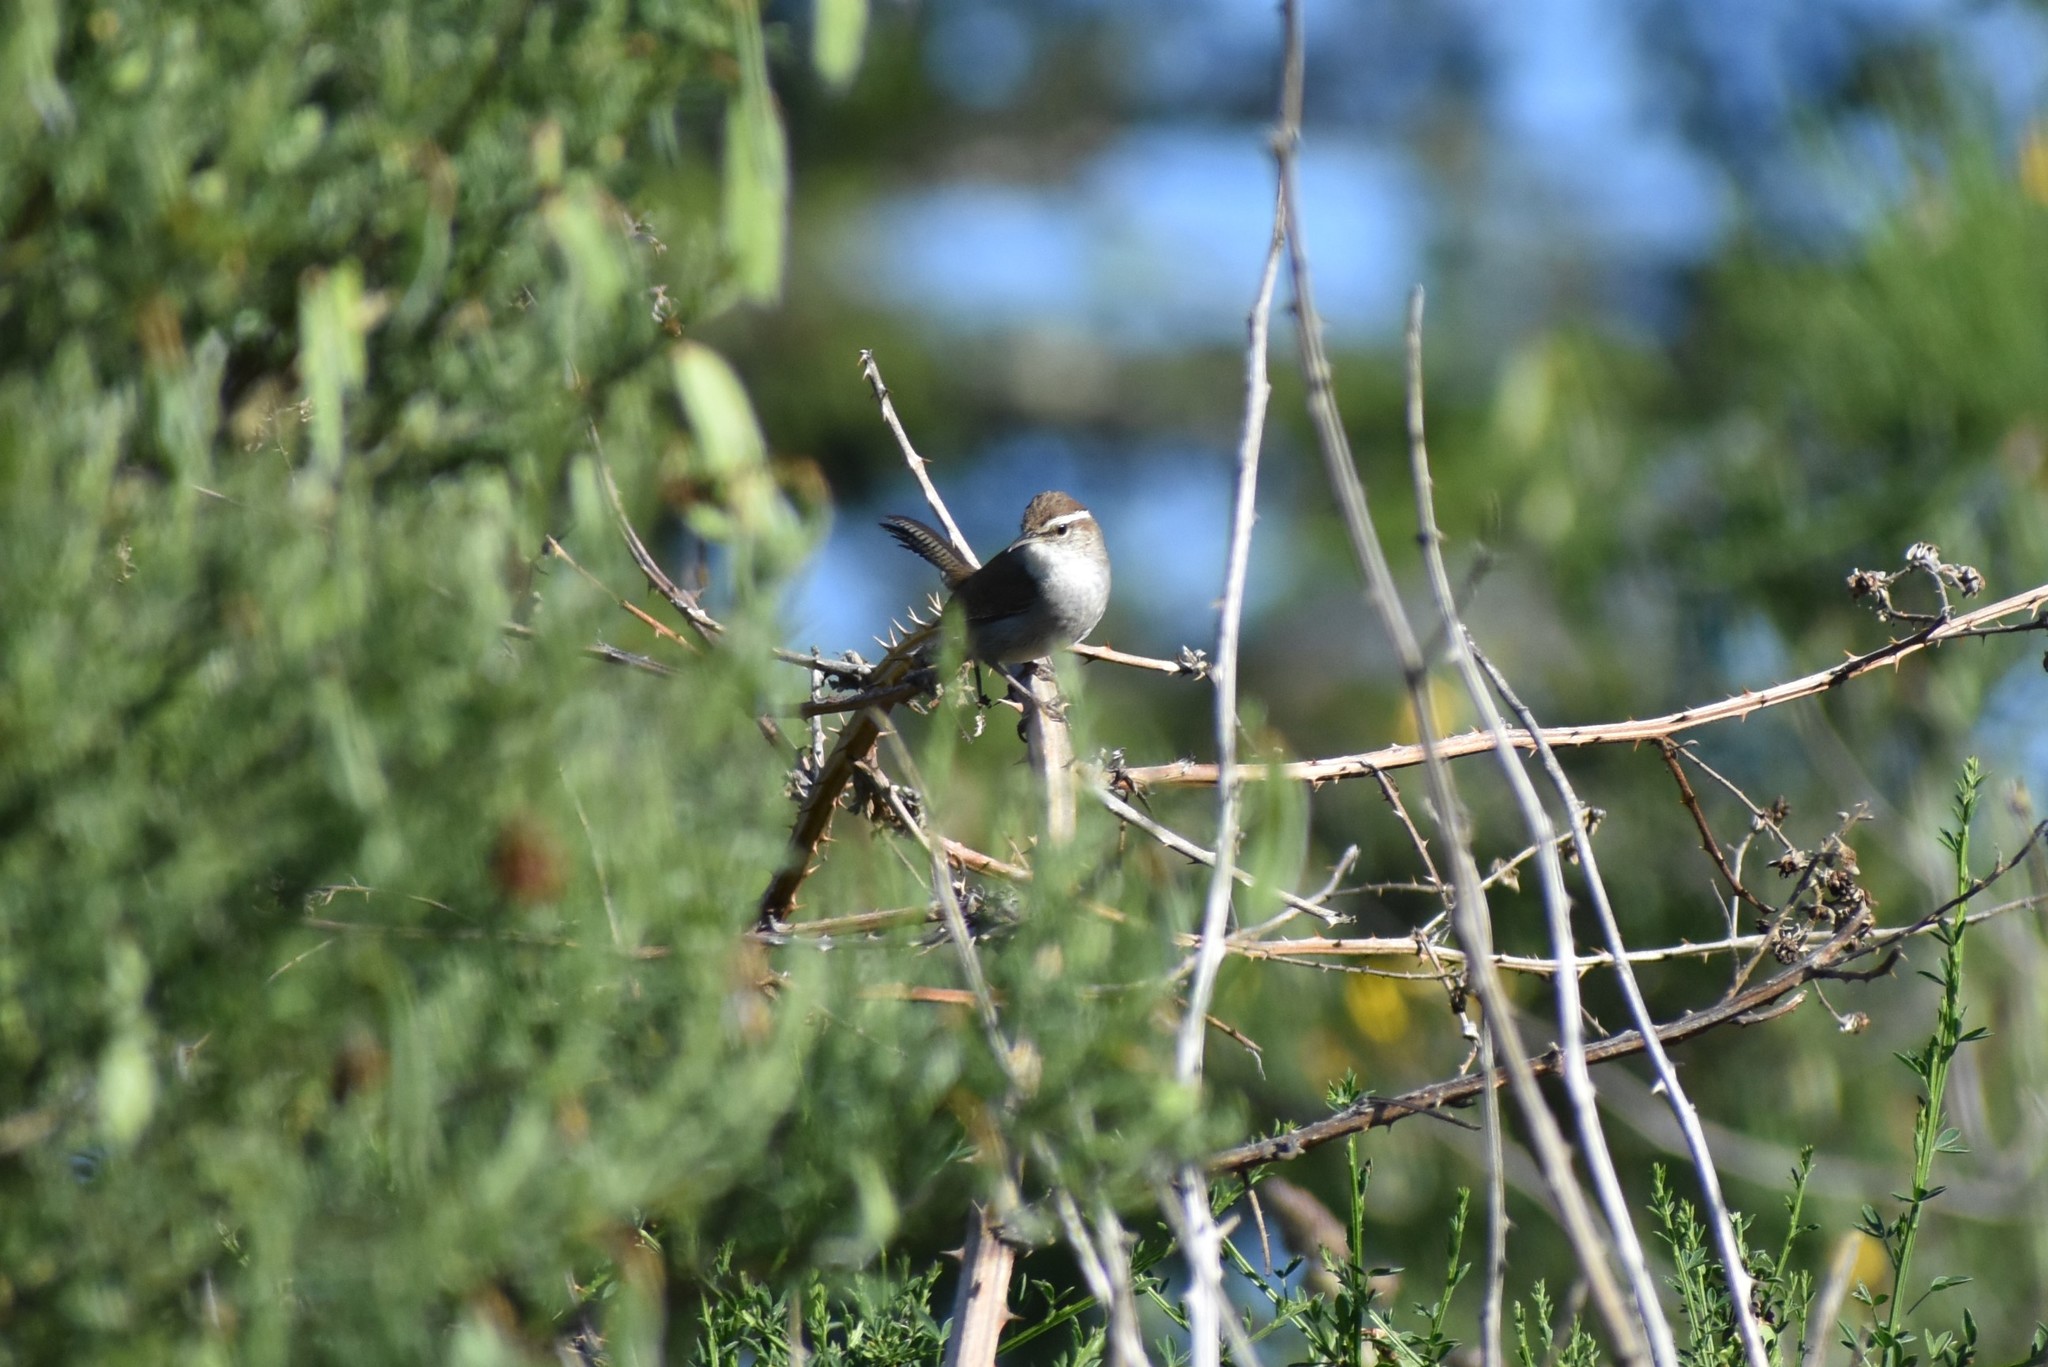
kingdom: Animalia
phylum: Chordata
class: Aves
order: Passeriformes
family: Troglodytidae
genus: Thryomanes
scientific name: Thryomanes bewickii
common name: Bewick's wren
